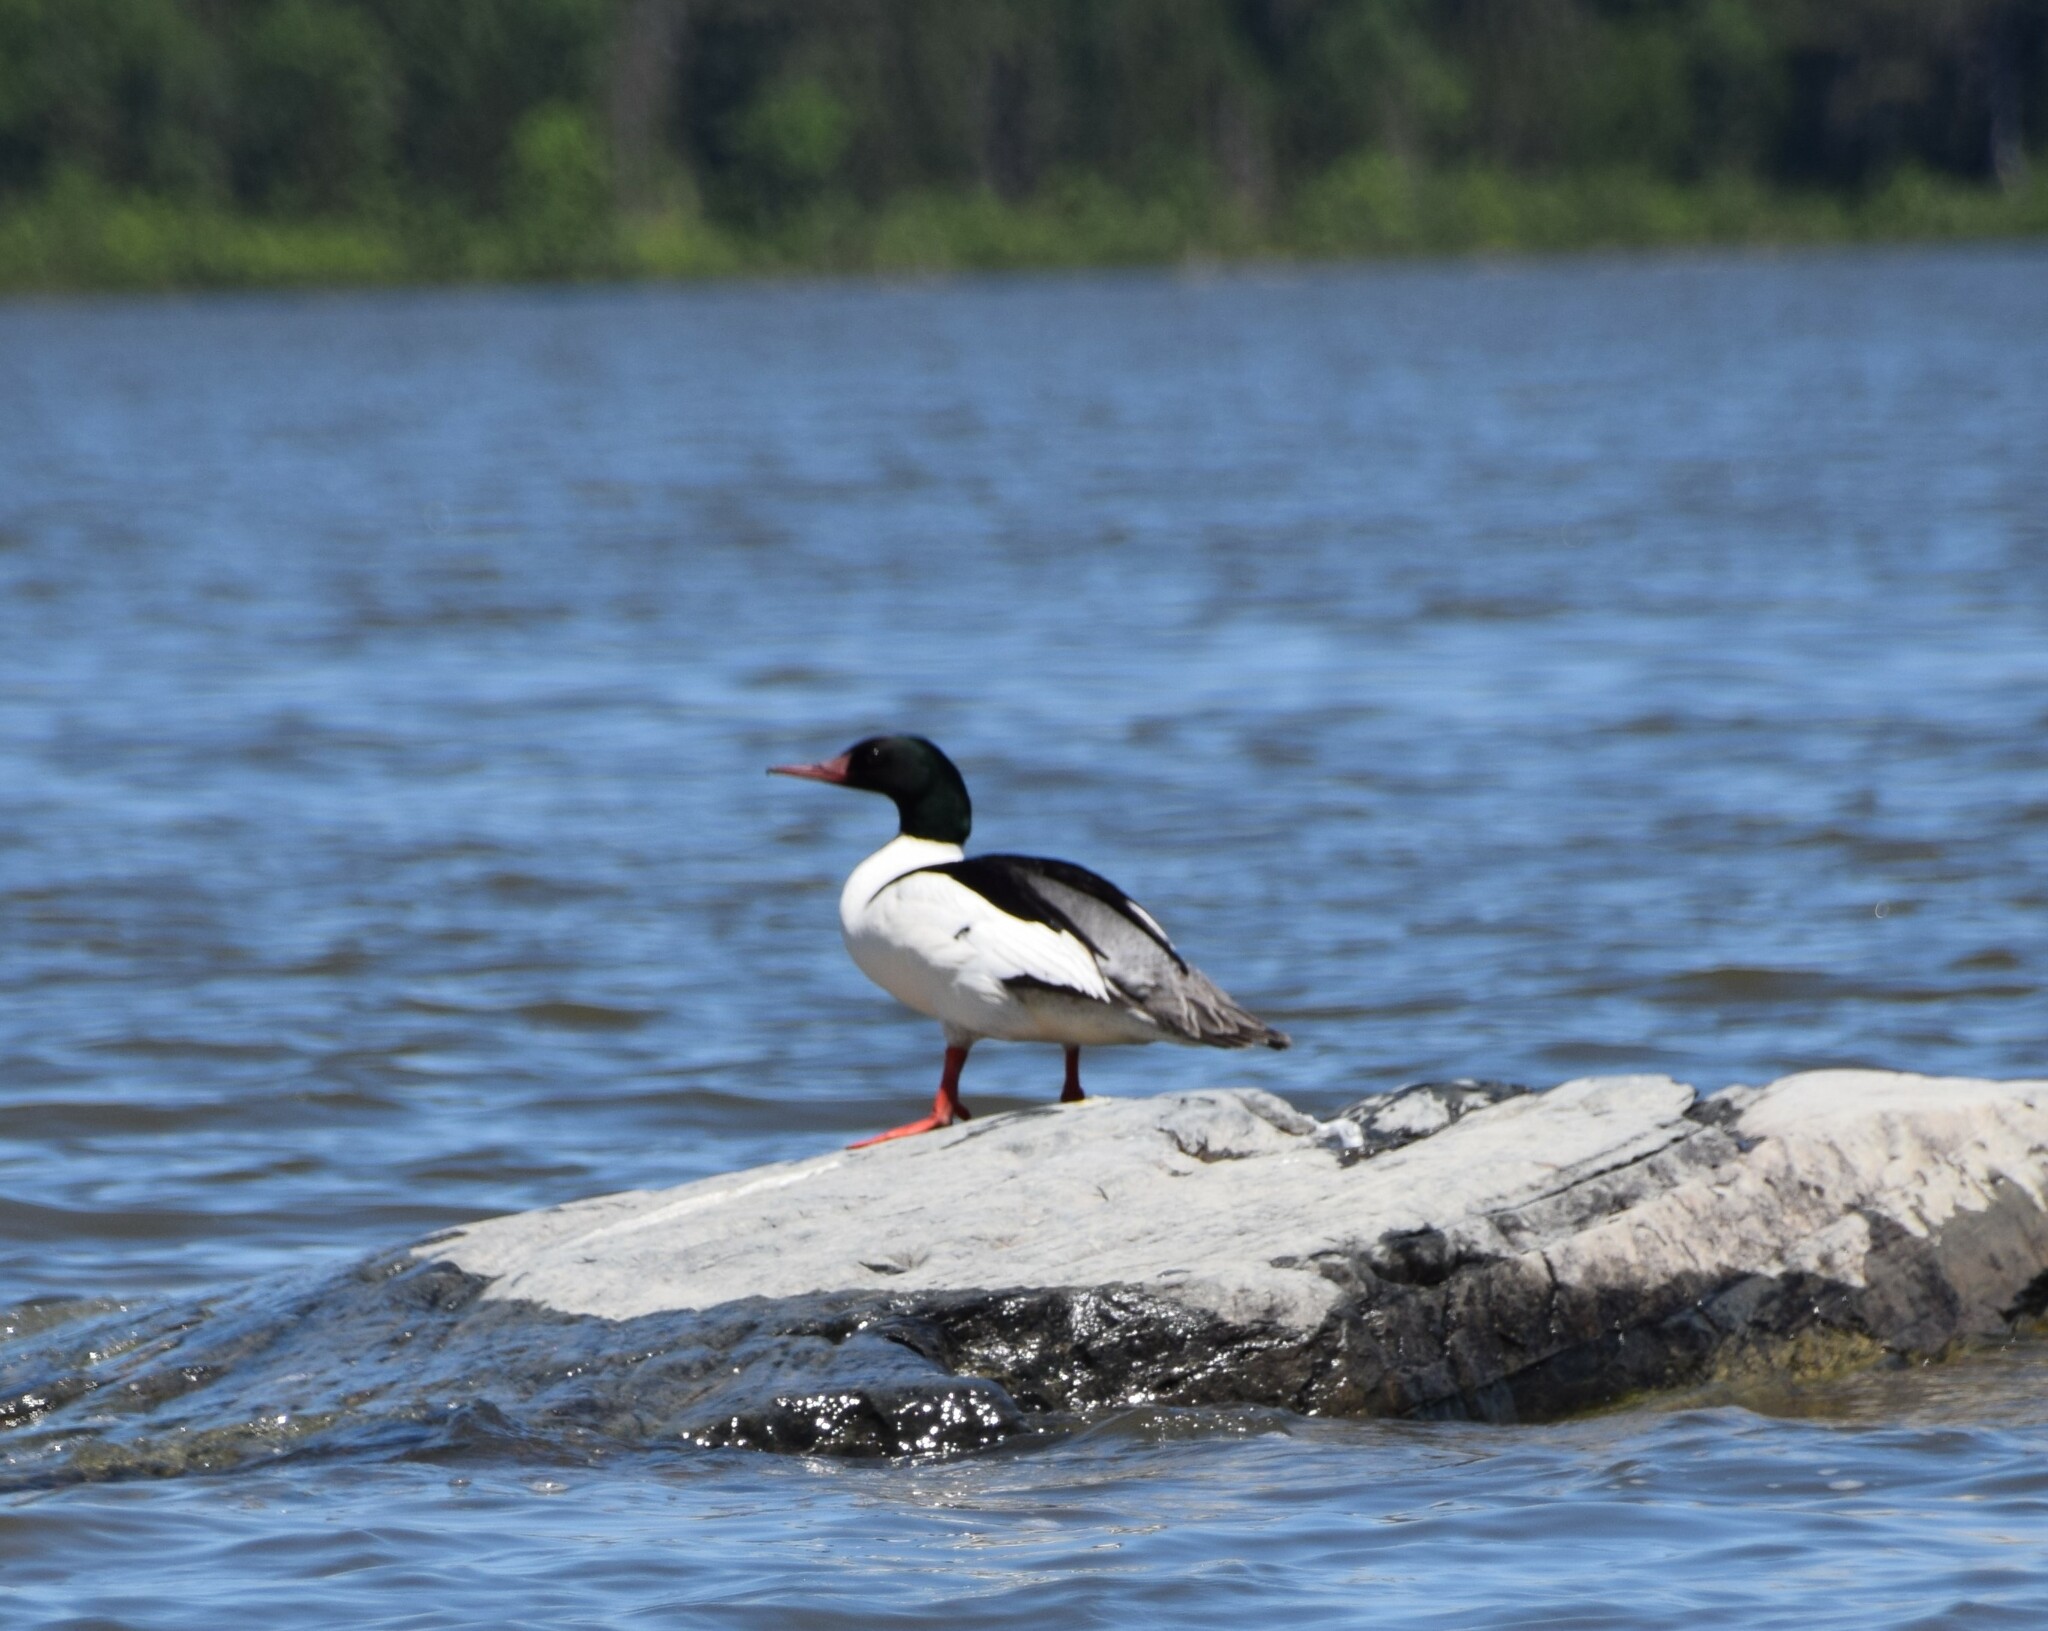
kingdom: Animalia
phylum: Chordata
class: Aves
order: Anseriformes
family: Anatidae
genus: Mergus
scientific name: Mergus merganser
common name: Common merganser
